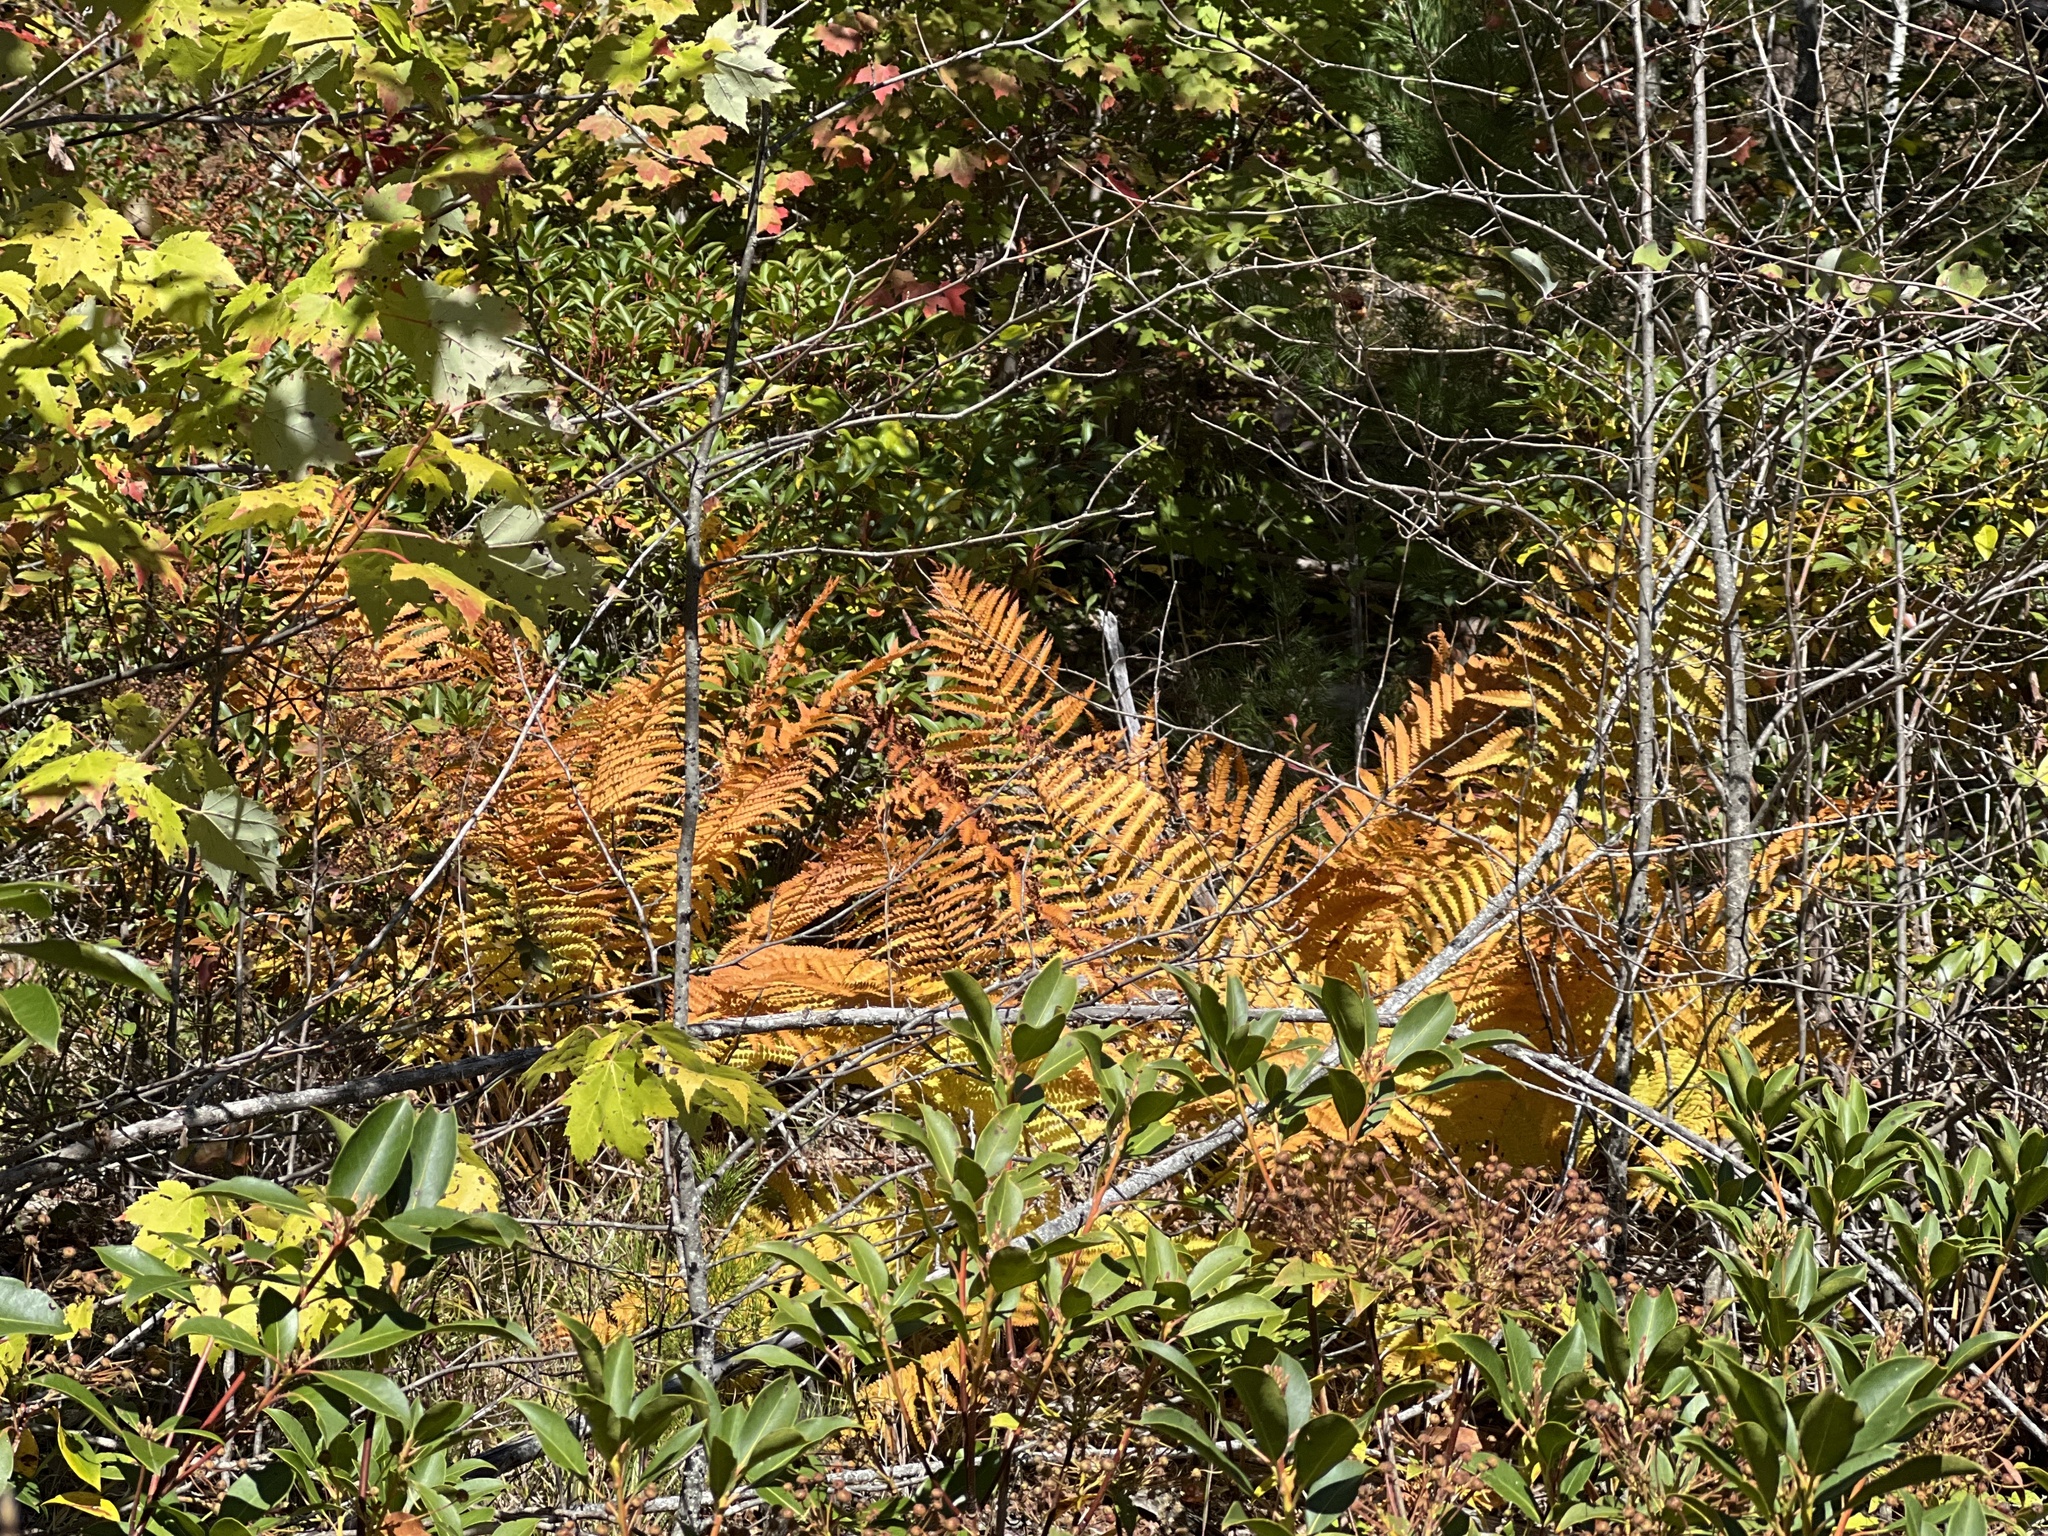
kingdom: Plantae
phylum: Tracheophyta
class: Polypodiopsida
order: Osmundales
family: Osmundaceae
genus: Osmundastrum
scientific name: Osmundastrum cinnamomeum
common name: Cinnamon fern
